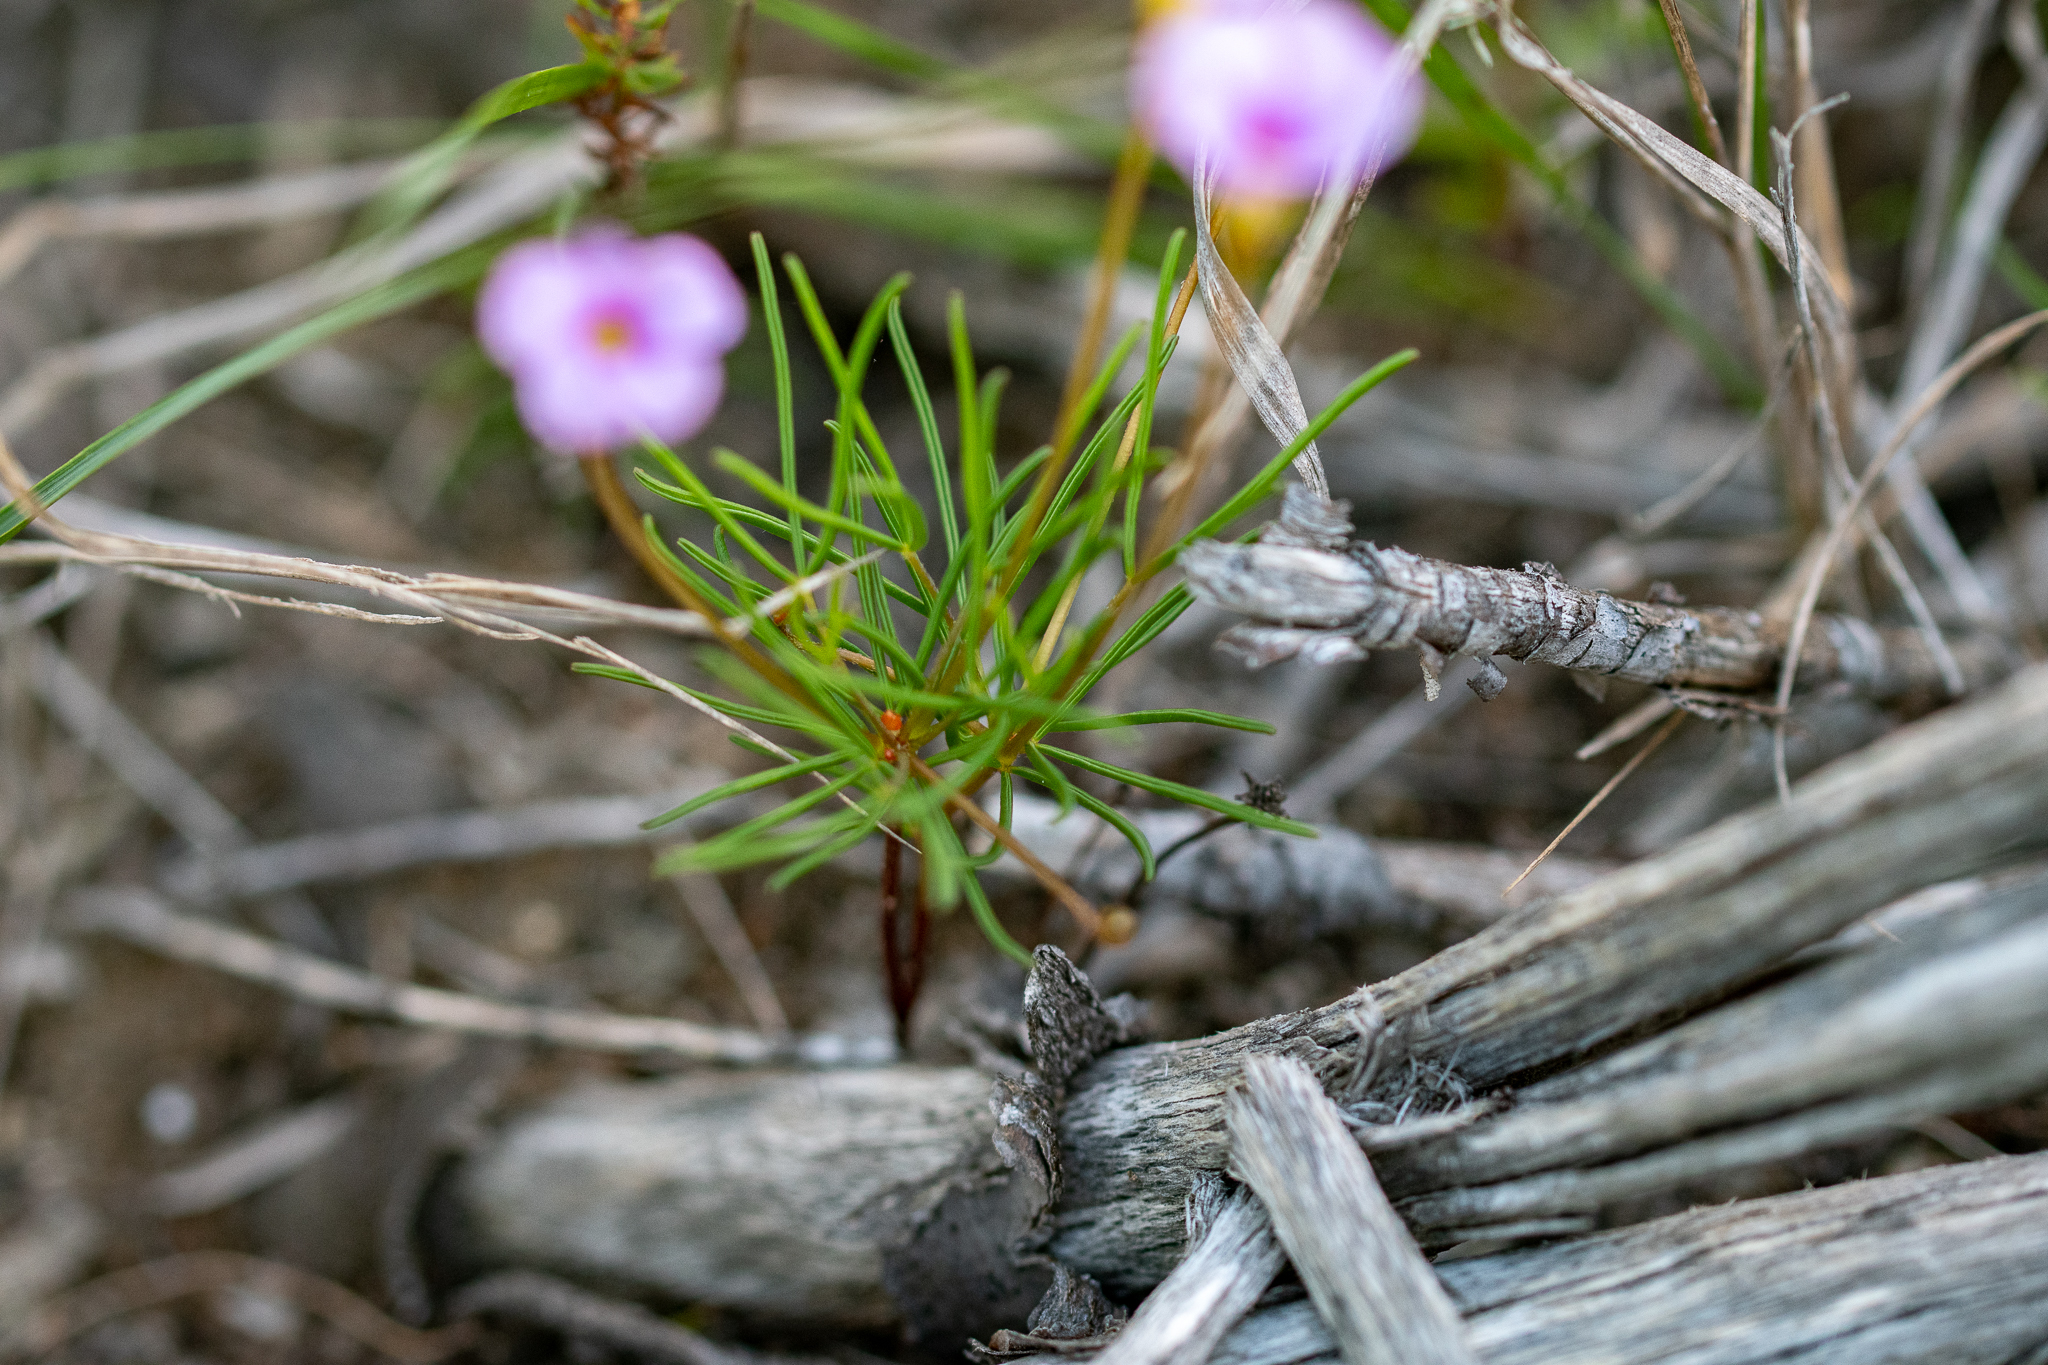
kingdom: Plantae
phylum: Tracheophyta
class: Magnoliopsida
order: Oxalidales
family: Oxalidaceae
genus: Oxalis
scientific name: Oxalis polyphylla
